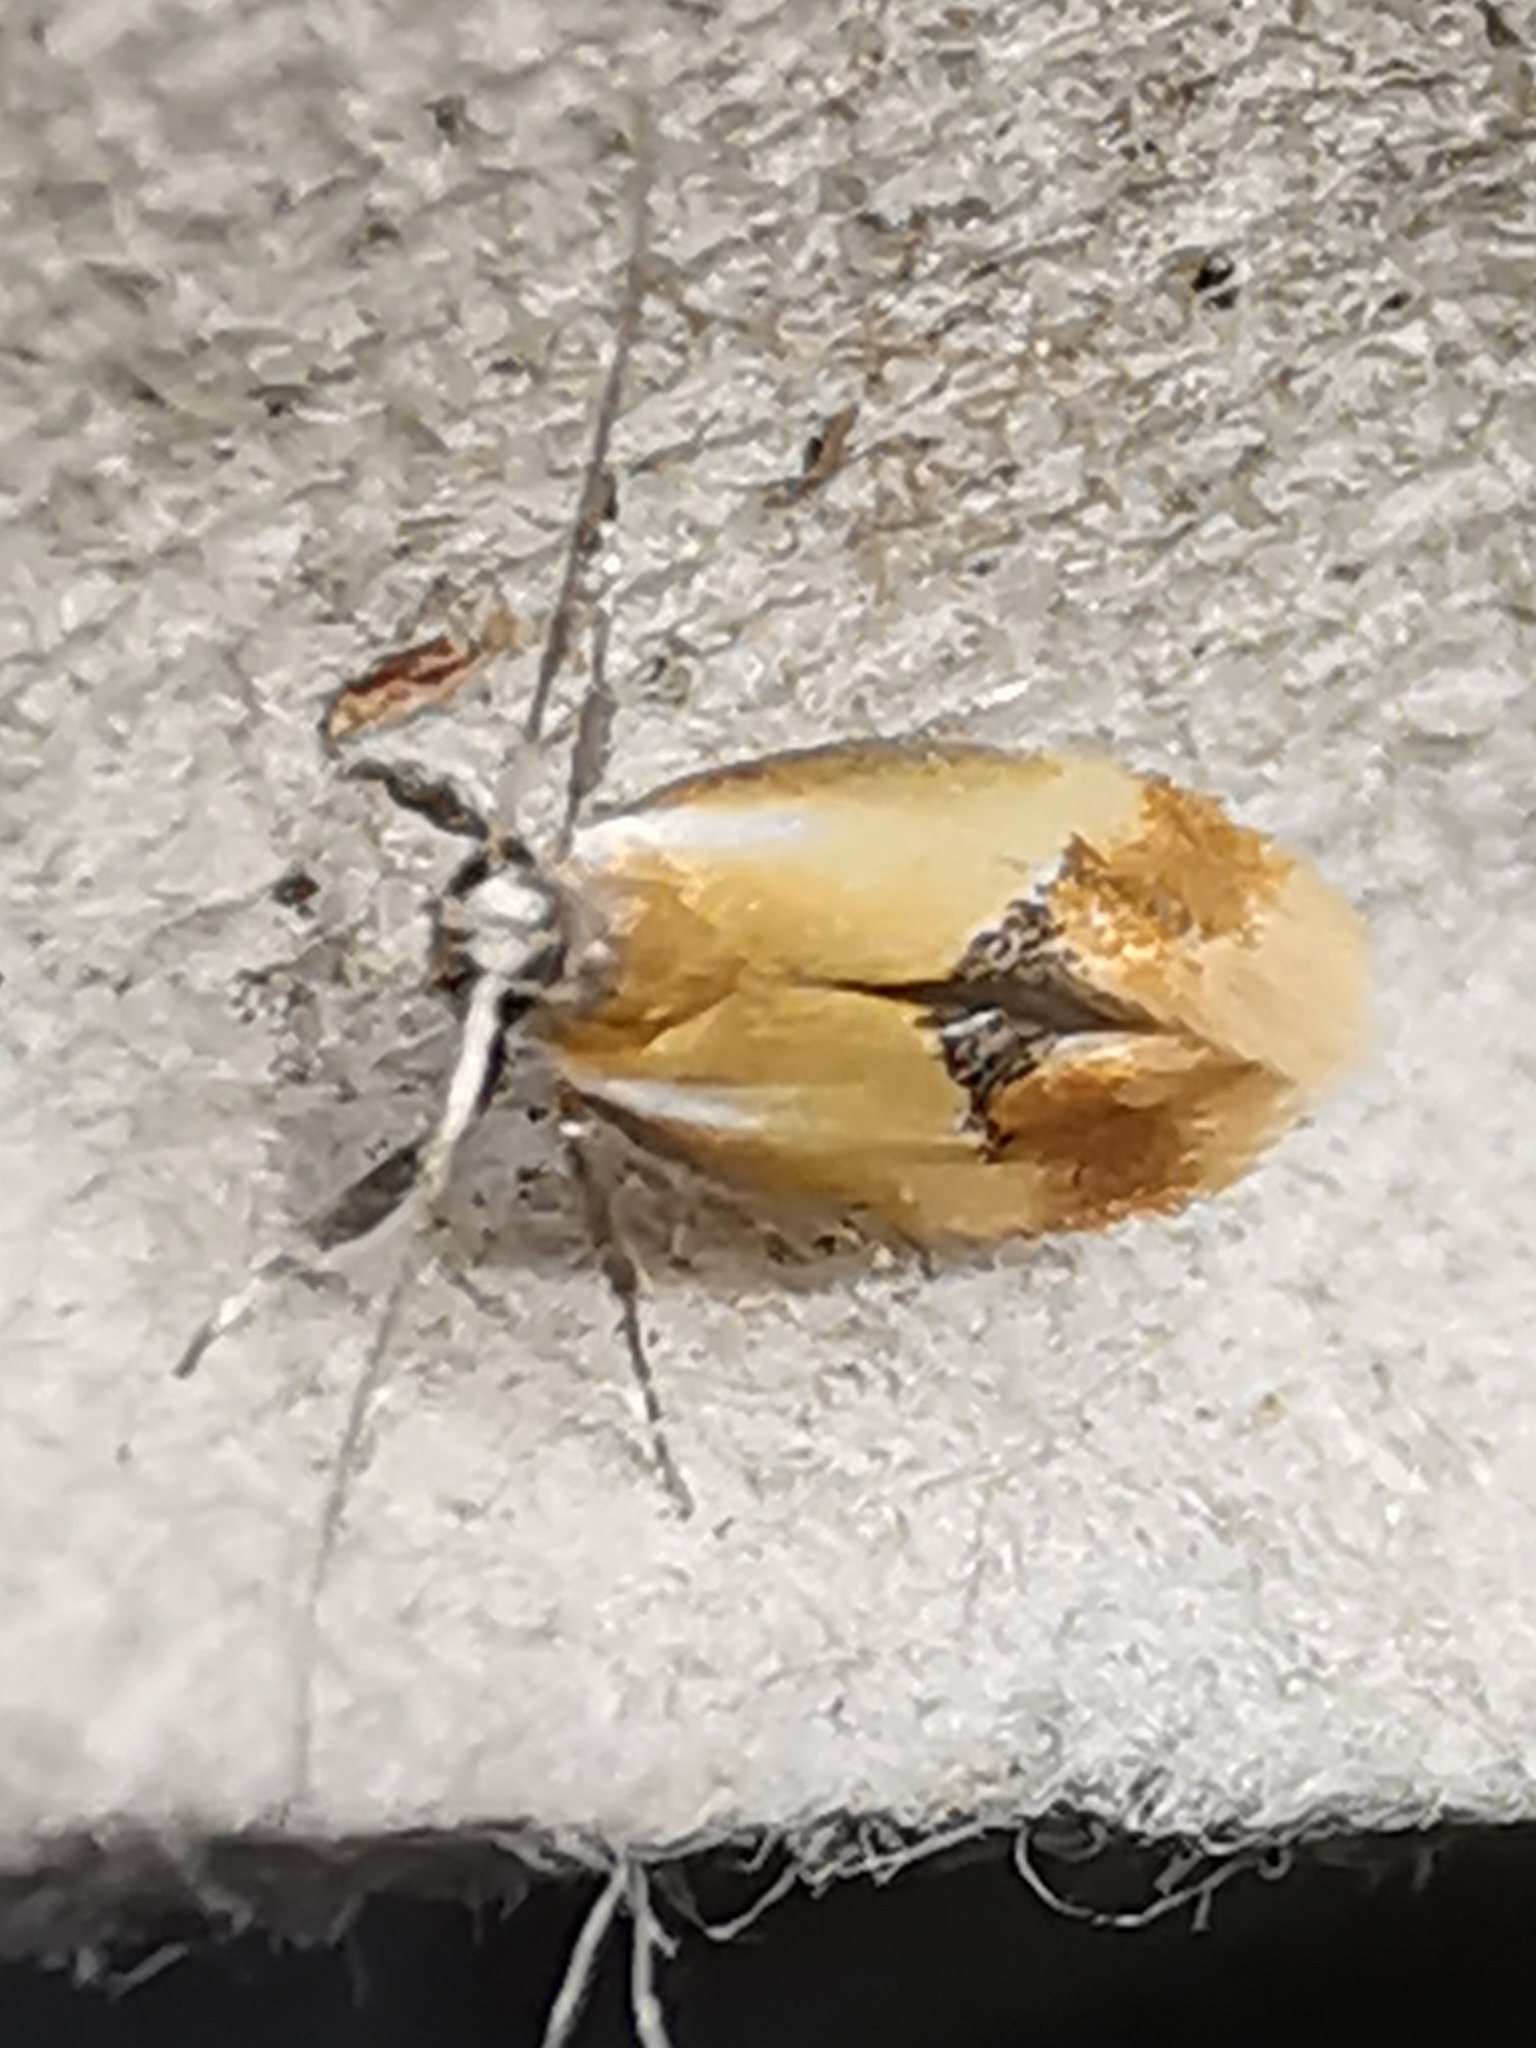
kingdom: Animalia
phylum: Arthropoda
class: Insecta
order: Lepidoptera
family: Oecophoridae
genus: Batia
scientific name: Batia lunaris
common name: Moth
